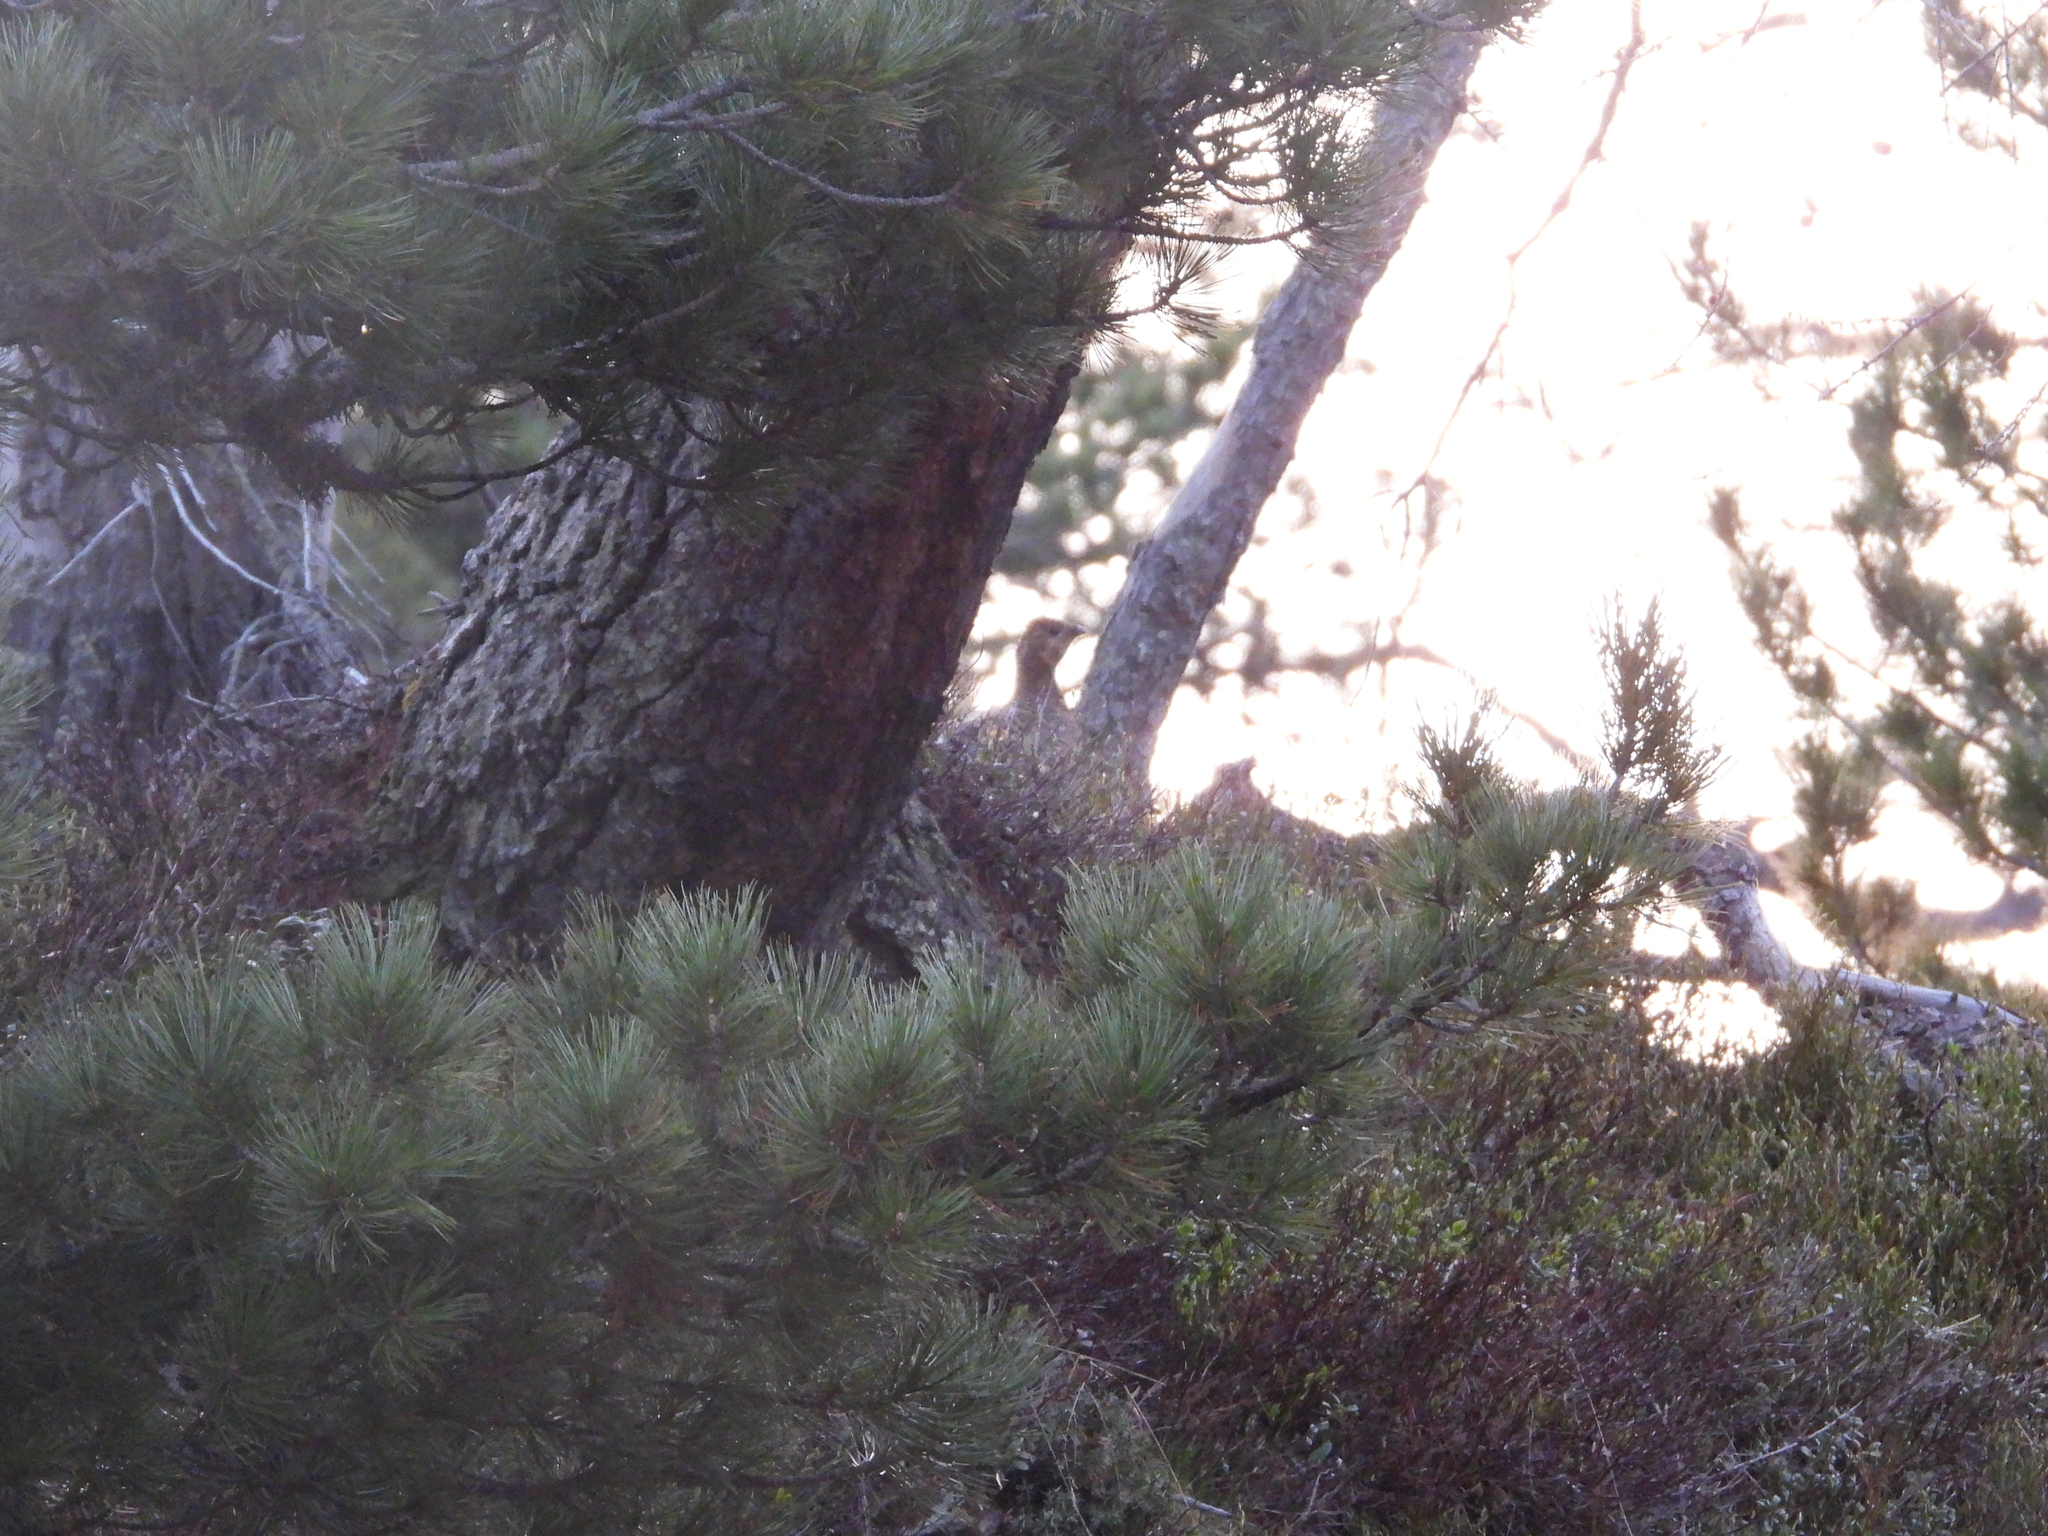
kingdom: Animalia
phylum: Chordata
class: Aves
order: Galliformes
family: Phasianidae
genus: Lyrurus
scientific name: Lyrurus tetrix
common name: Black grouse
